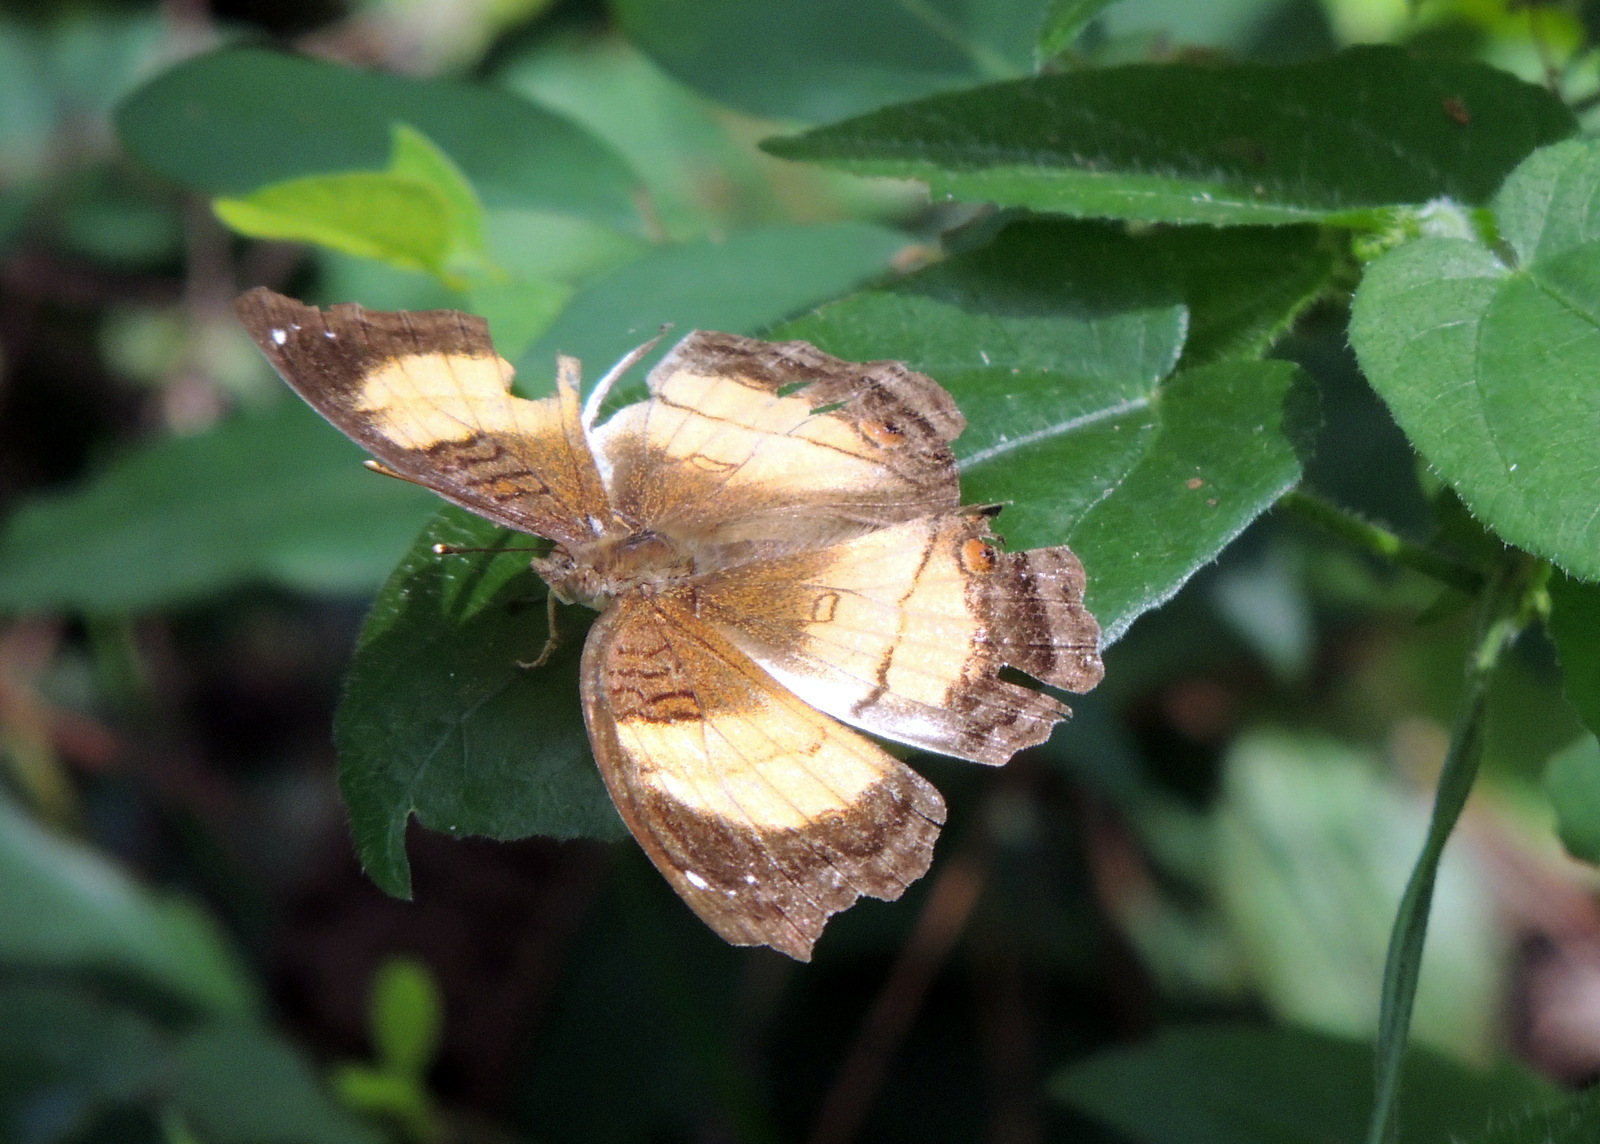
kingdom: Animalia
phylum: Arthropoda
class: Insecta
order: Lepidoptera
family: Nymphalidae
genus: Junonia
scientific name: Junonia terea
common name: Soldier pansy
